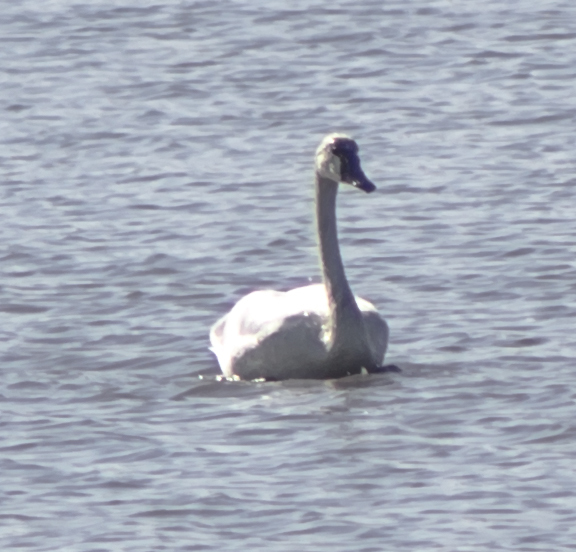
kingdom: Animalia
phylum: Chordata
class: Aves
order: Anseriformes
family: Anatidae
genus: Cygnus
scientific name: Cygnus columbianus
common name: Tundra swan
